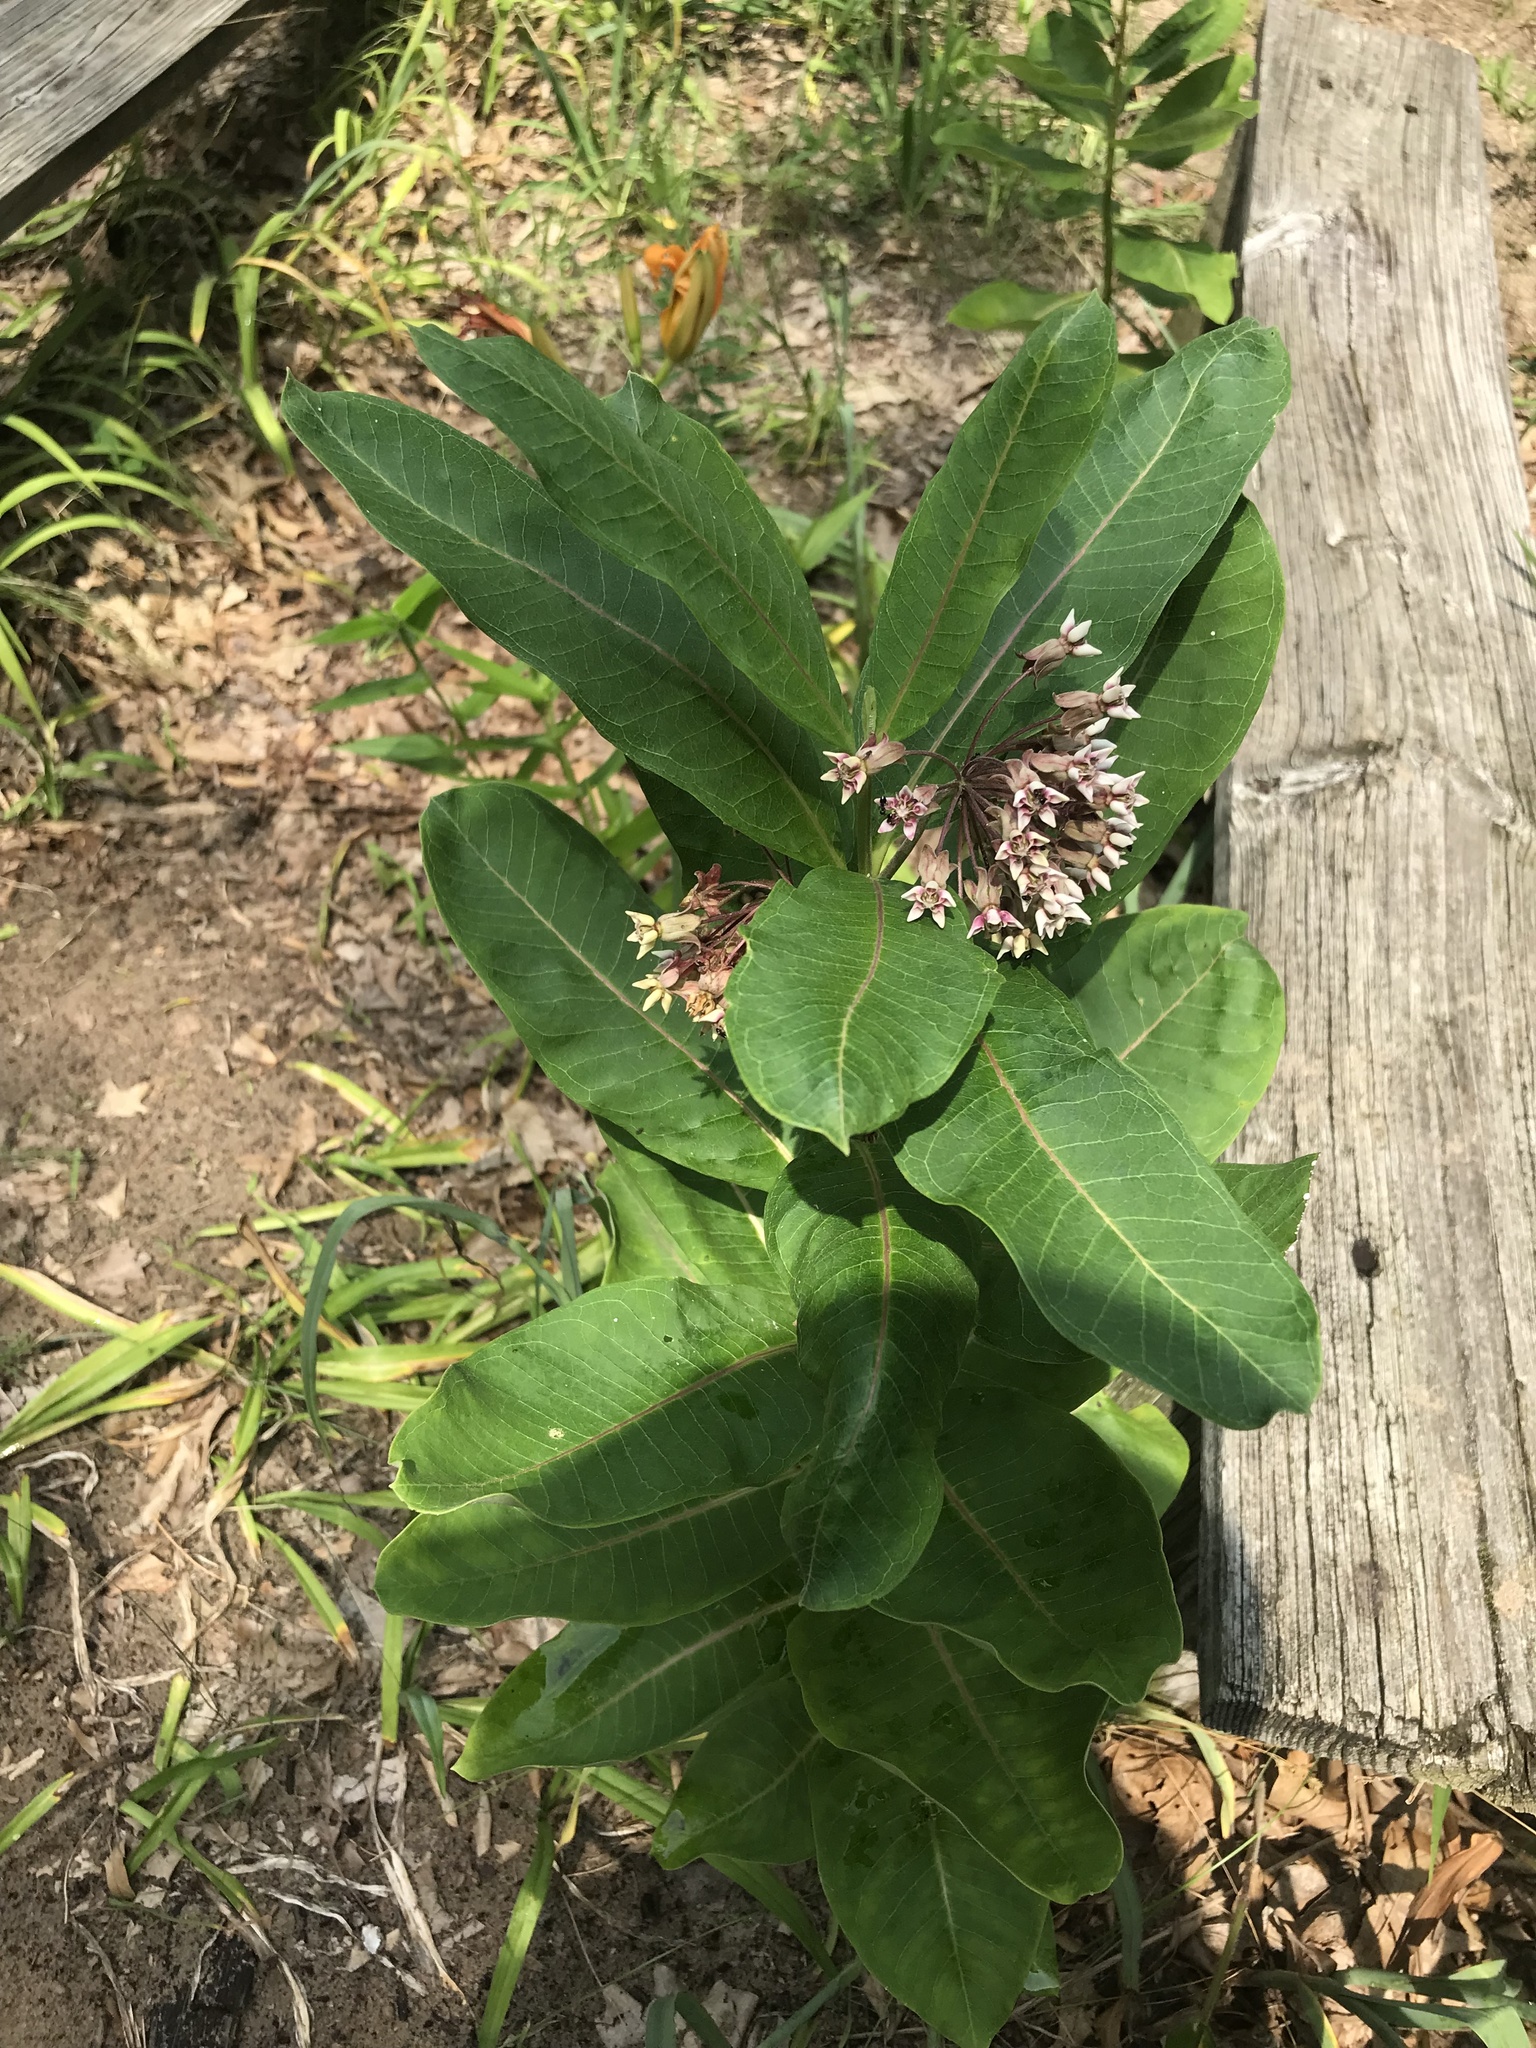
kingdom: Plantae
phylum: Tracheophyta
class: Magnoliopsida
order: Gentianales
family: Apocynaceae
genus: Asclepias
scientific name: Asclepias syriaca
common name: Common milkweed
